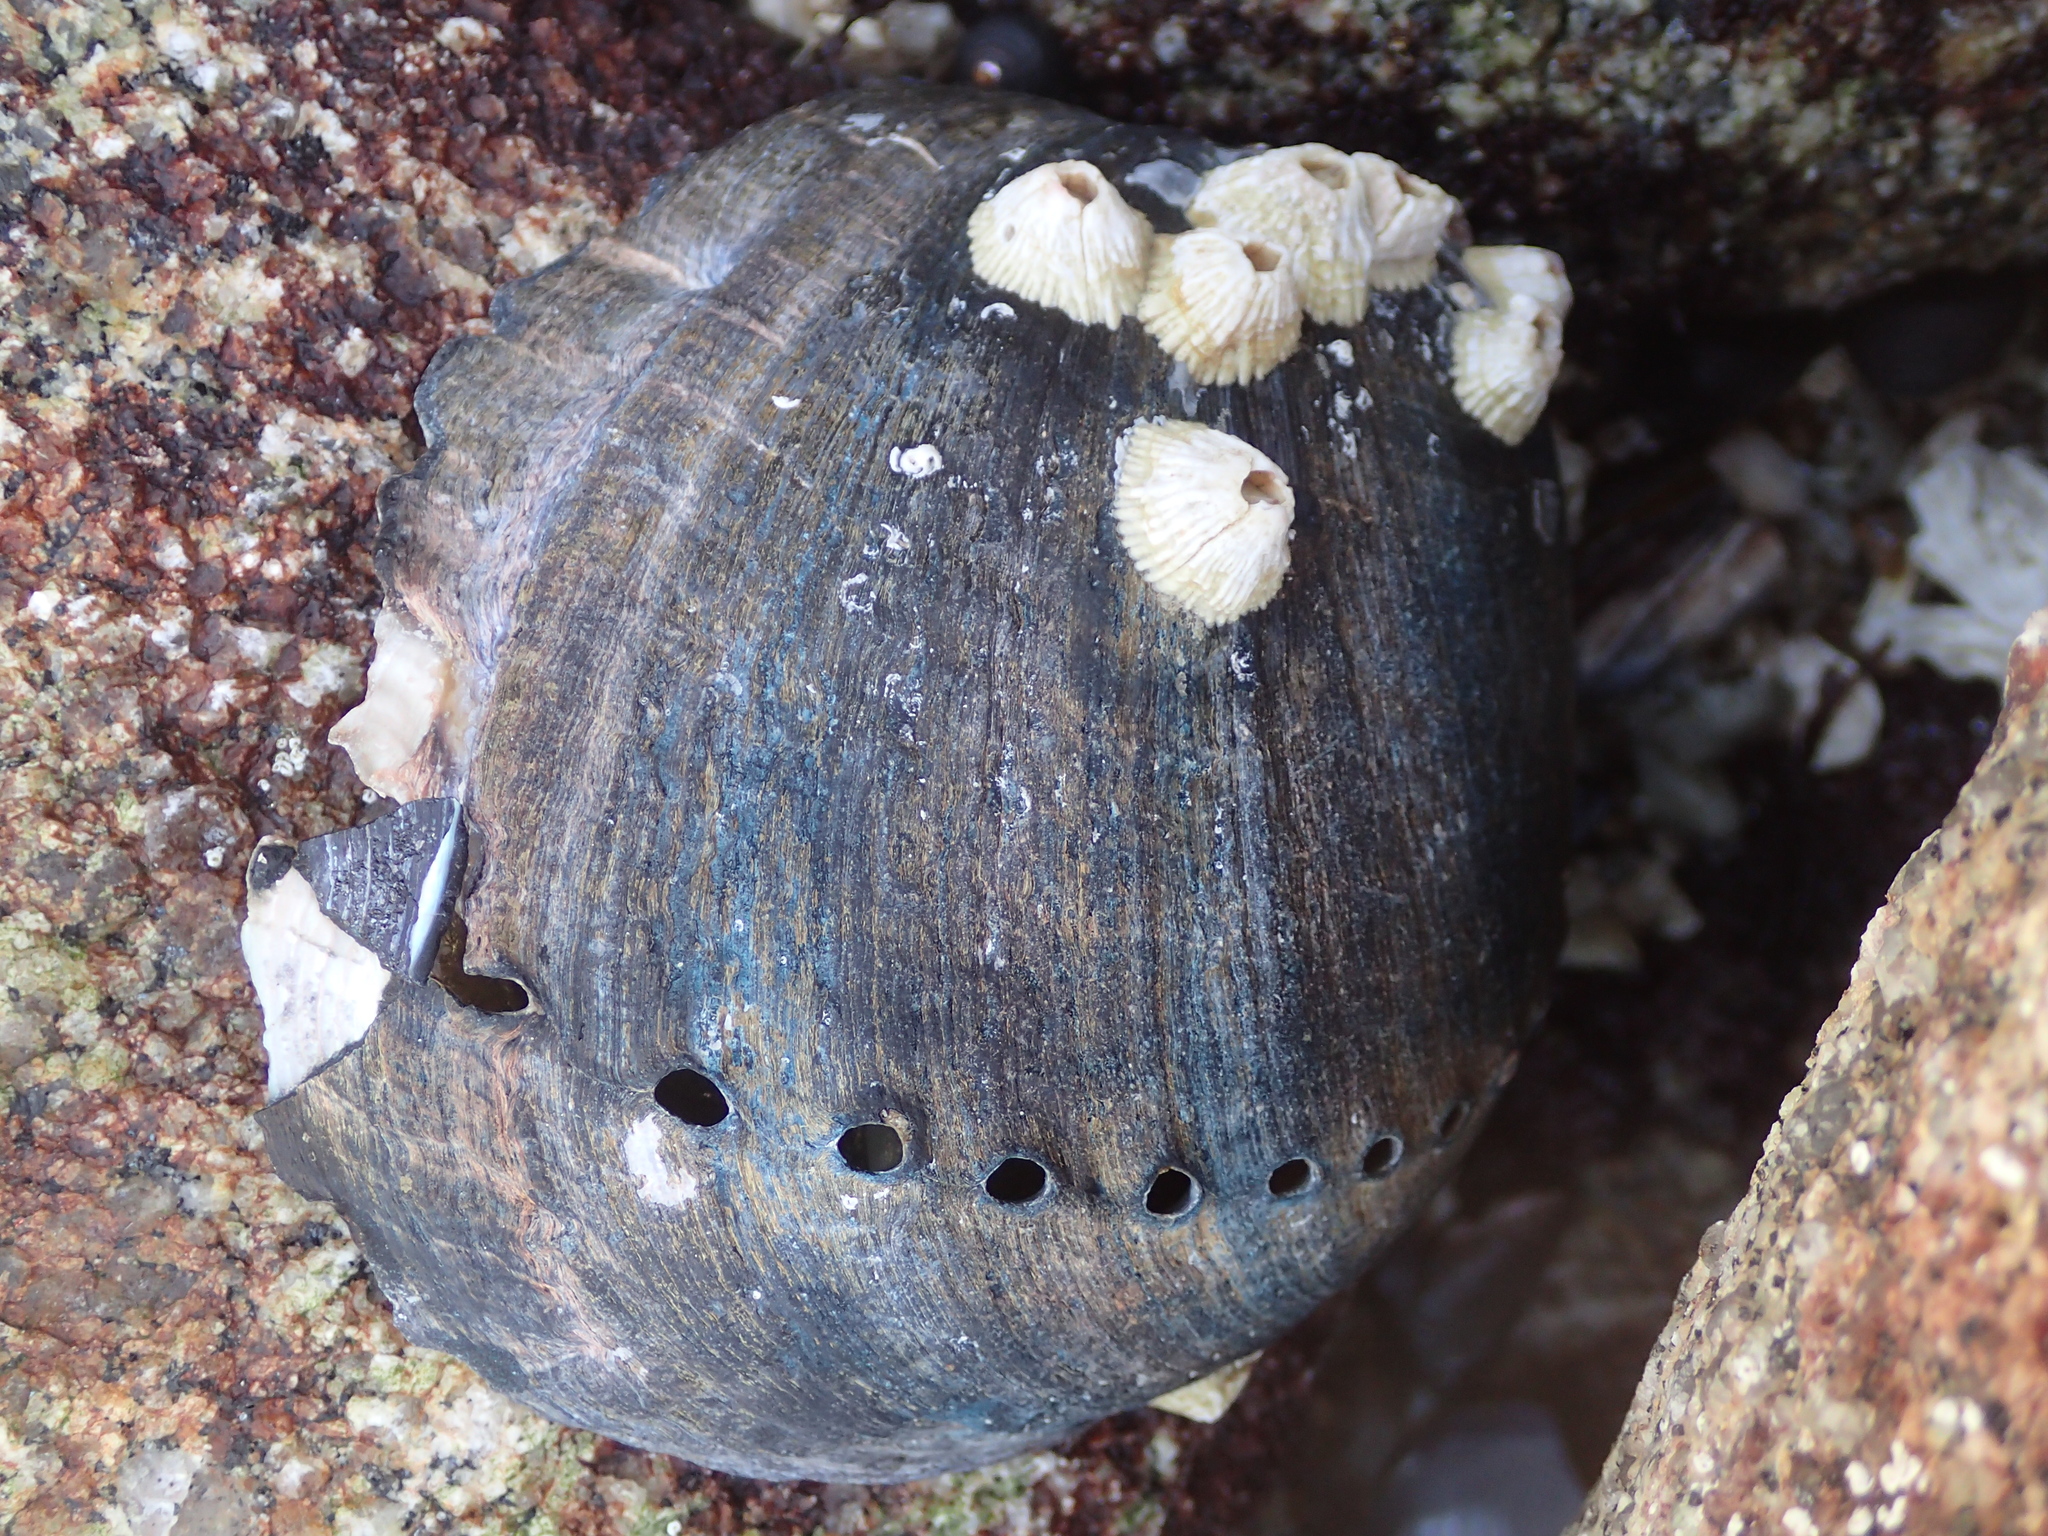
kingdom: Animalia
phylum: Mollusca
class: Gastropoda
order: Lepetellida
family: Haliotidae
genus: Haliotis
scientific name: Haliotis cracherodii
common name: Black abalone
